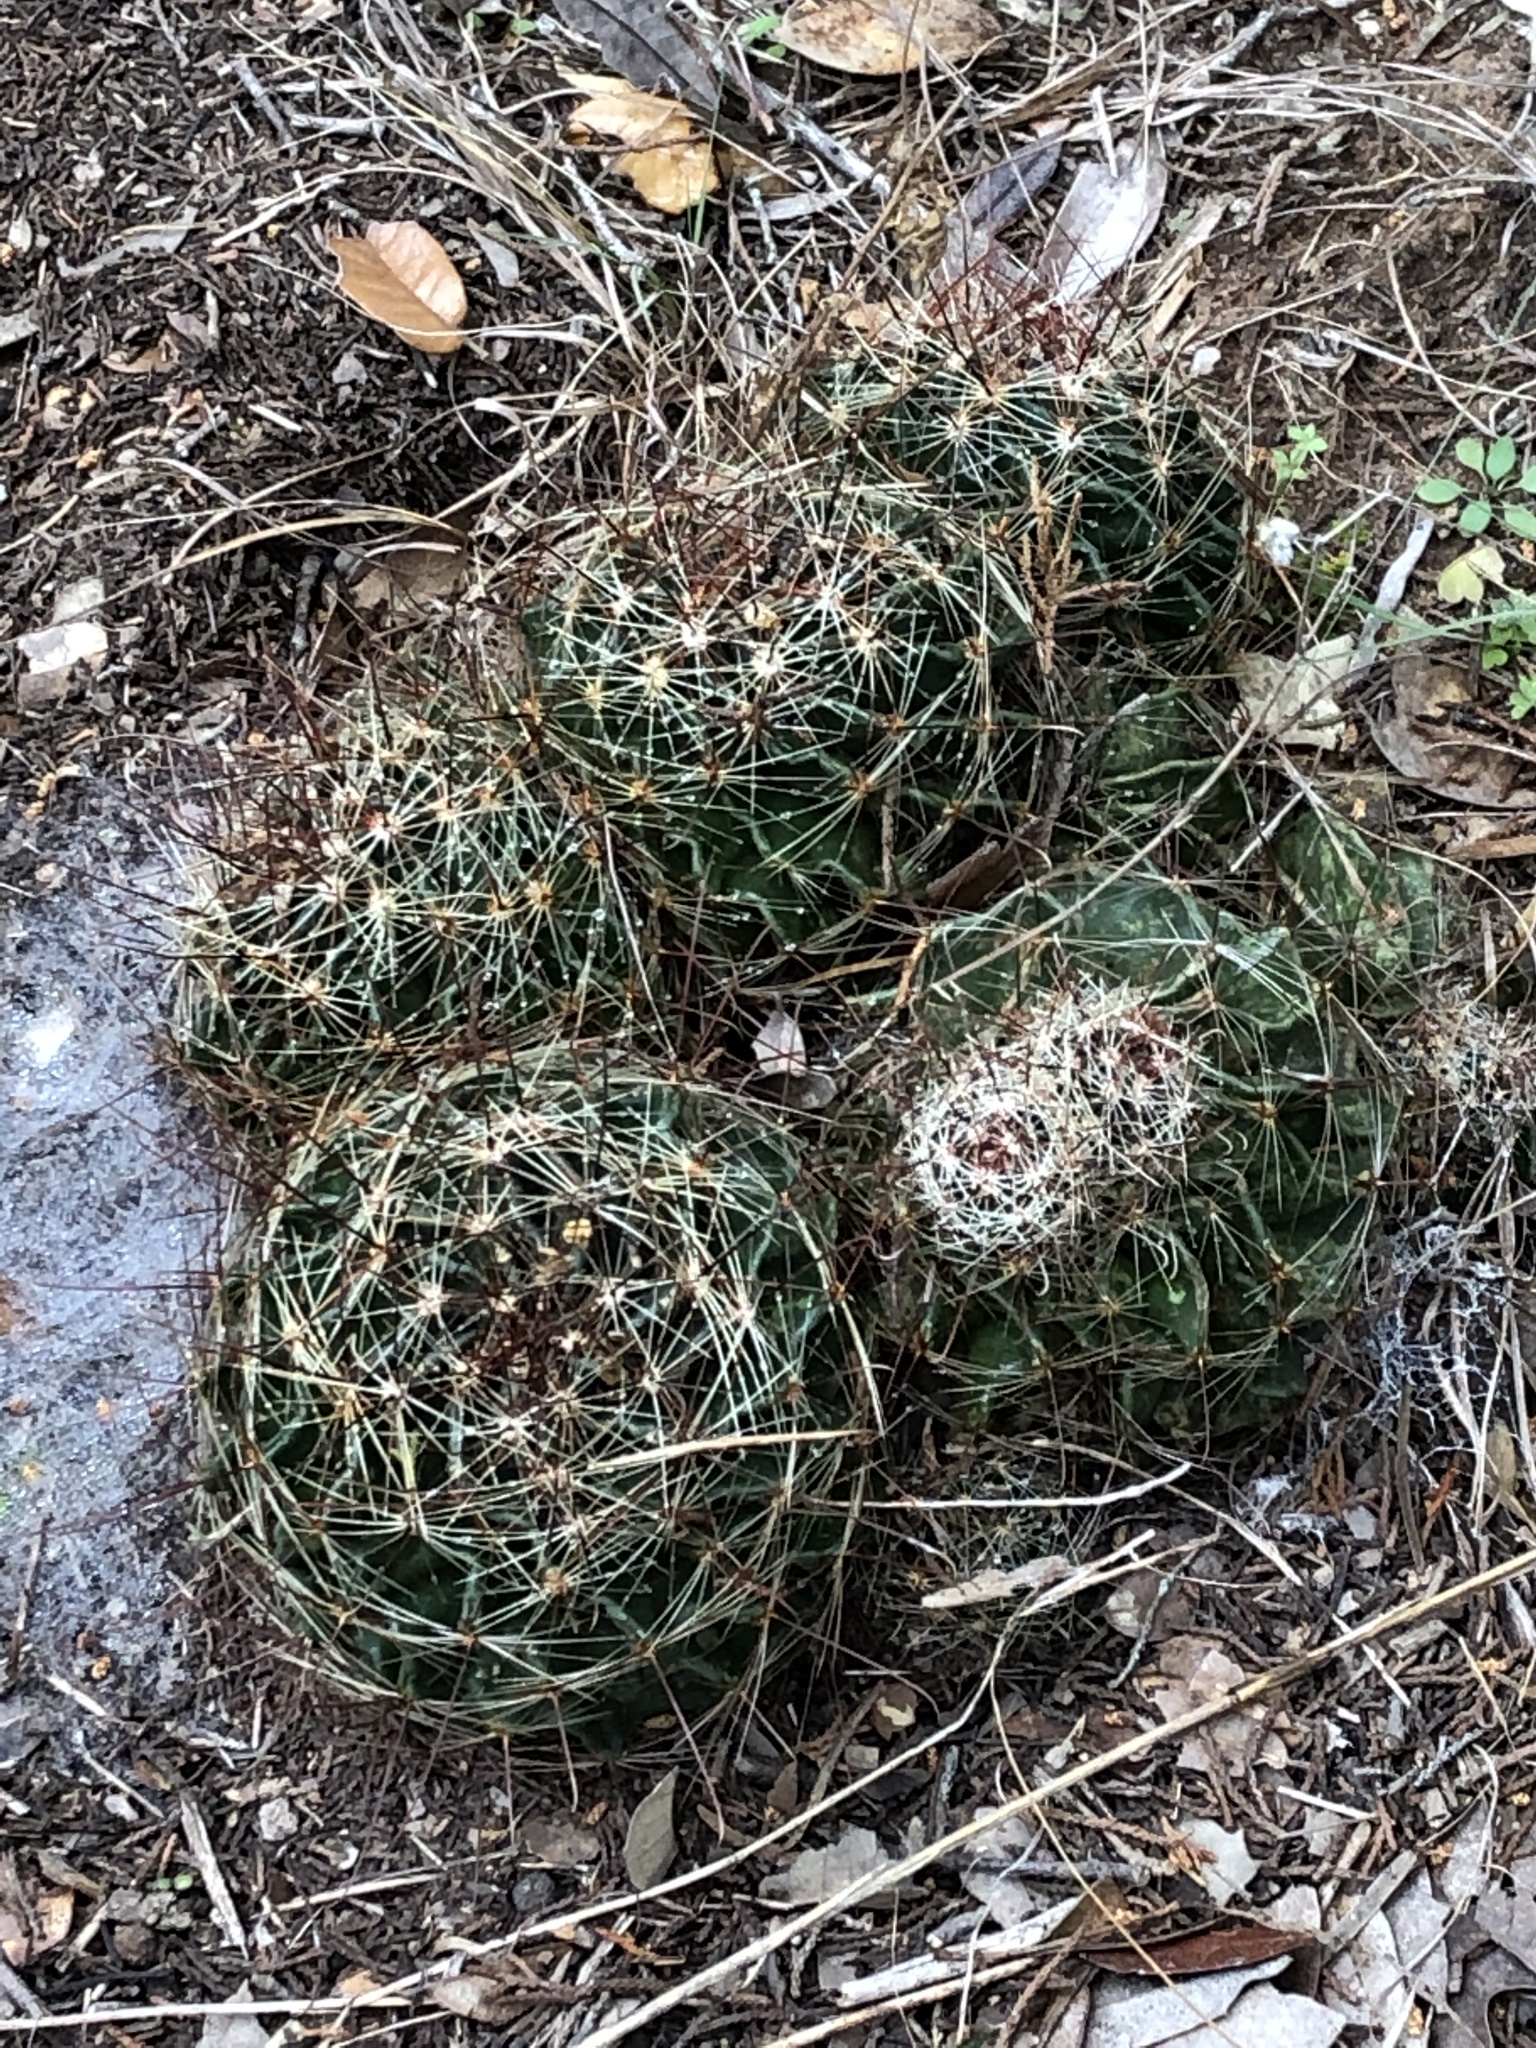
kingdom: Plantae
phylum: Tracheophyta
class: Magnoliopsida
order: Caryophyllales
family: Cactaceae
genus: Thelocactus
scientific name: Thelocactus setispinus
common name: Miniature barrel cactus
